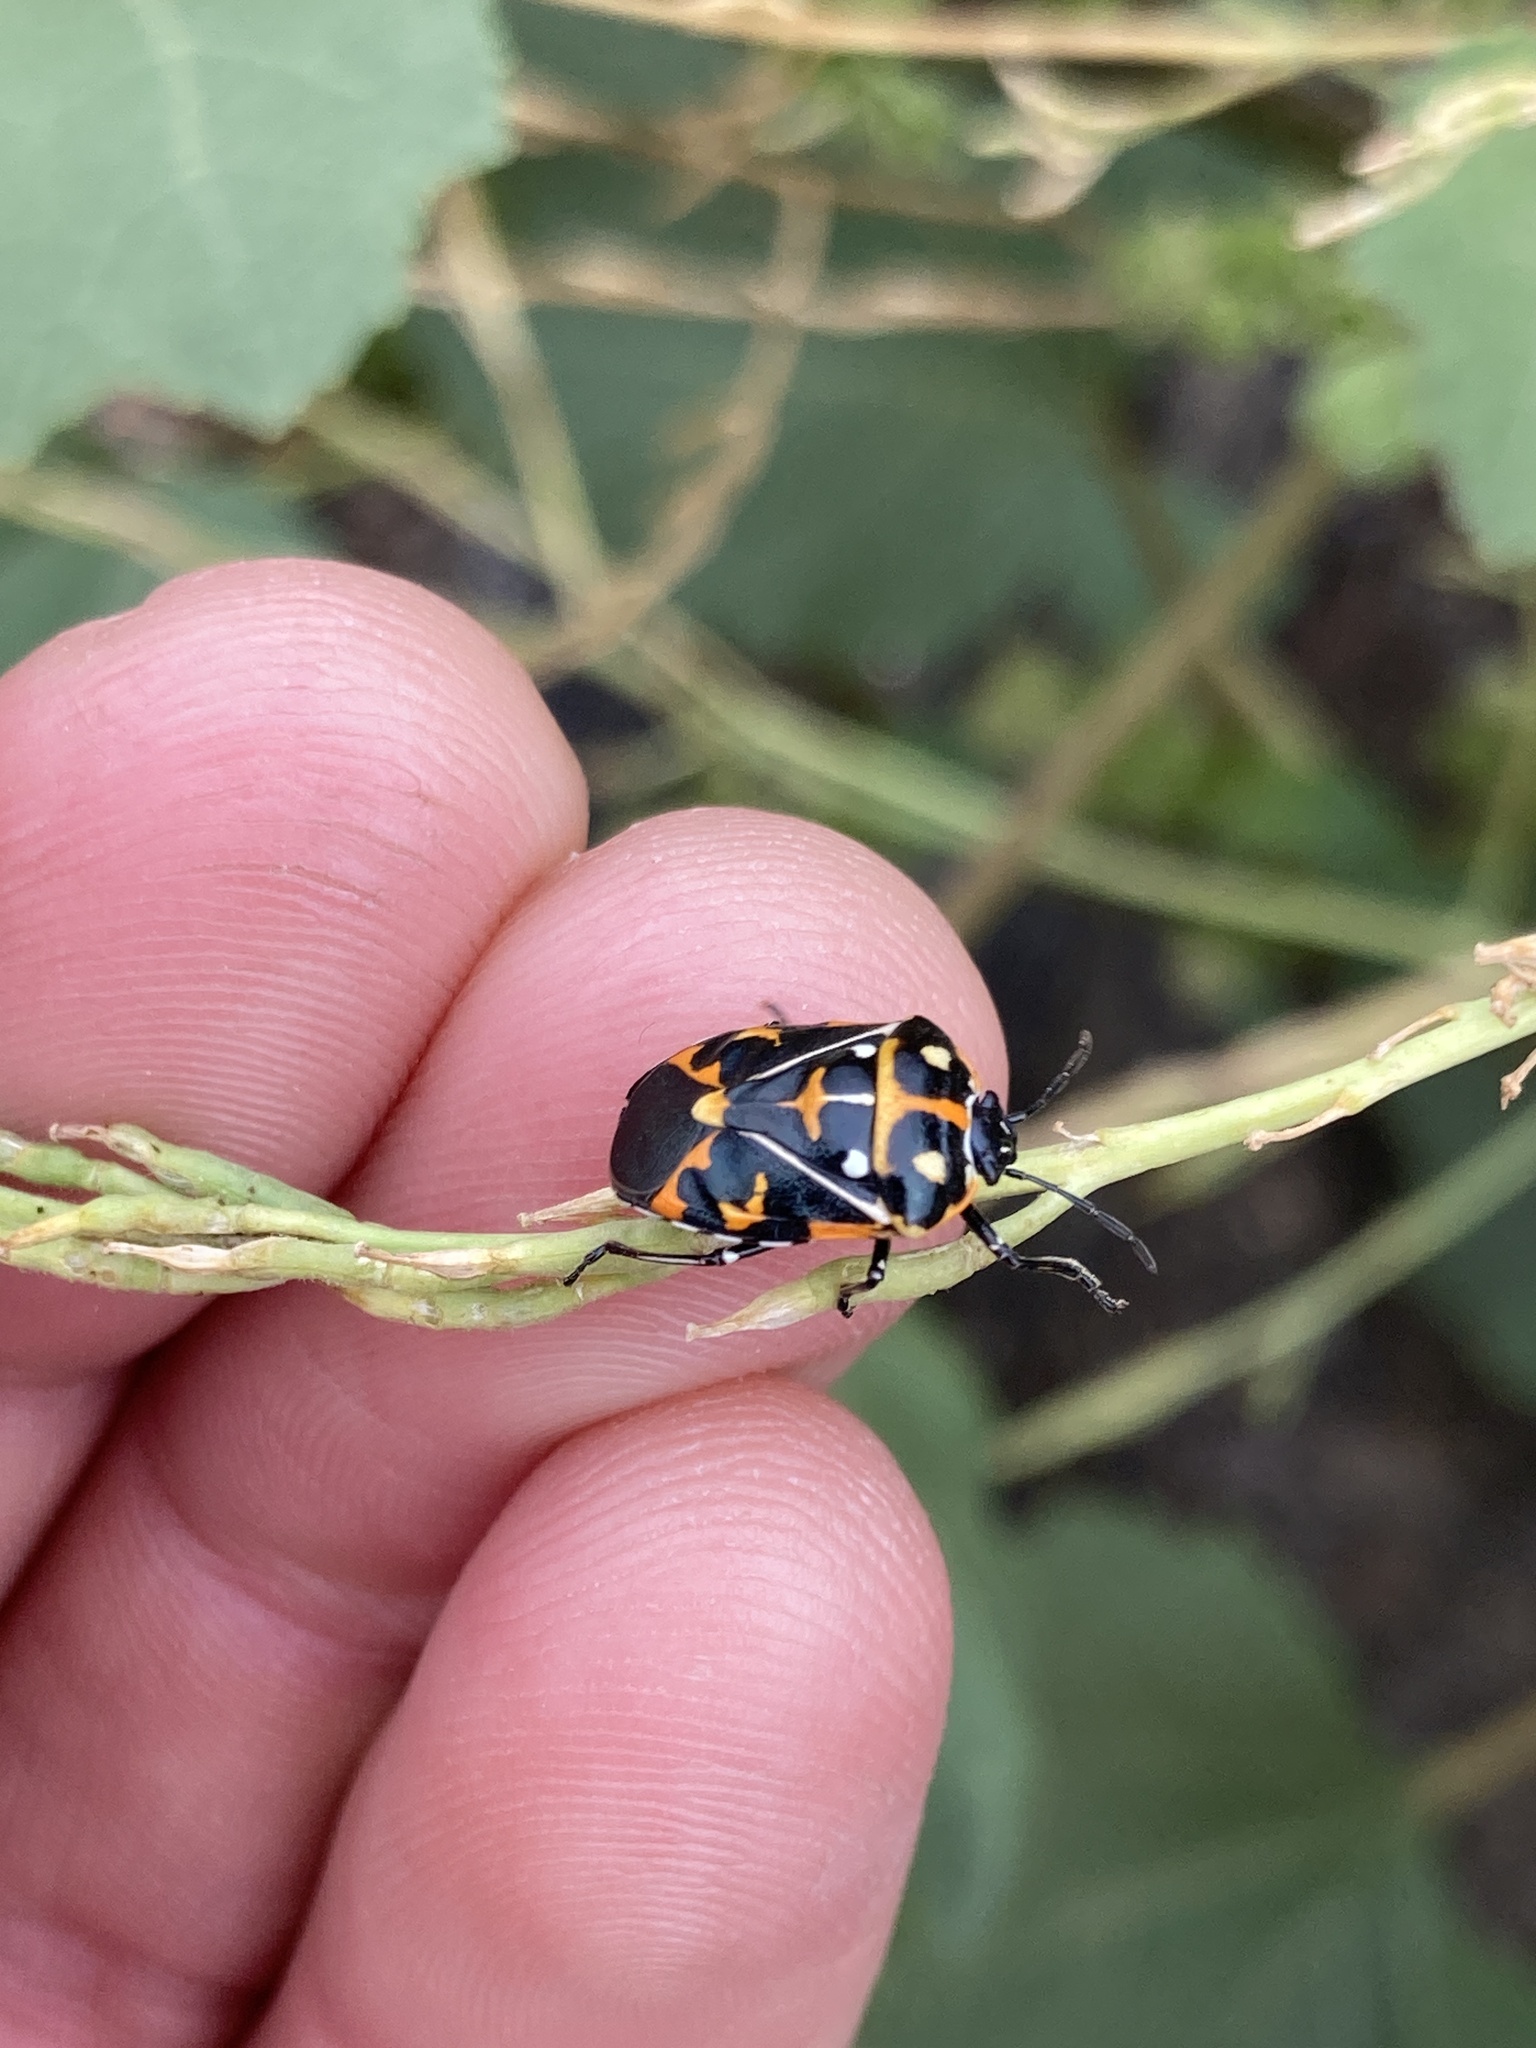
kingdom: Animalia
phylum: Arthropoda
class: Insecta
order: Hemiptera
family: Pentatomidae
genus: Murgantia
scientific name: Murgantia histrionica
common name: Harlequin bug
